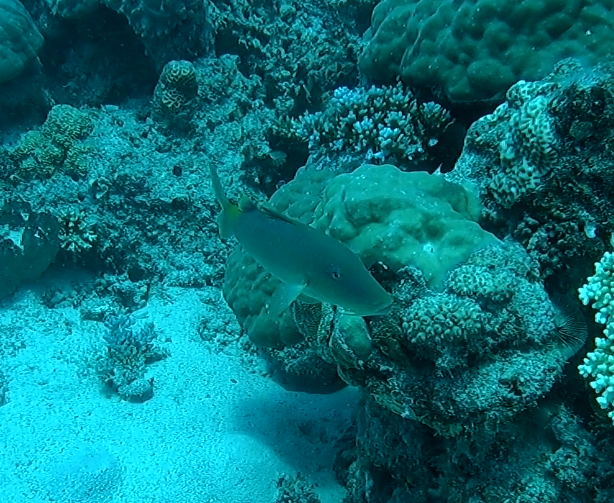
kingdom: Animalia
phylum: Chordata
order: Perciformes
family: Mullidae
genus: Parupeneus
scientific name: Parupeneus cyclostomus
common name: Goldsaddle goatfish
